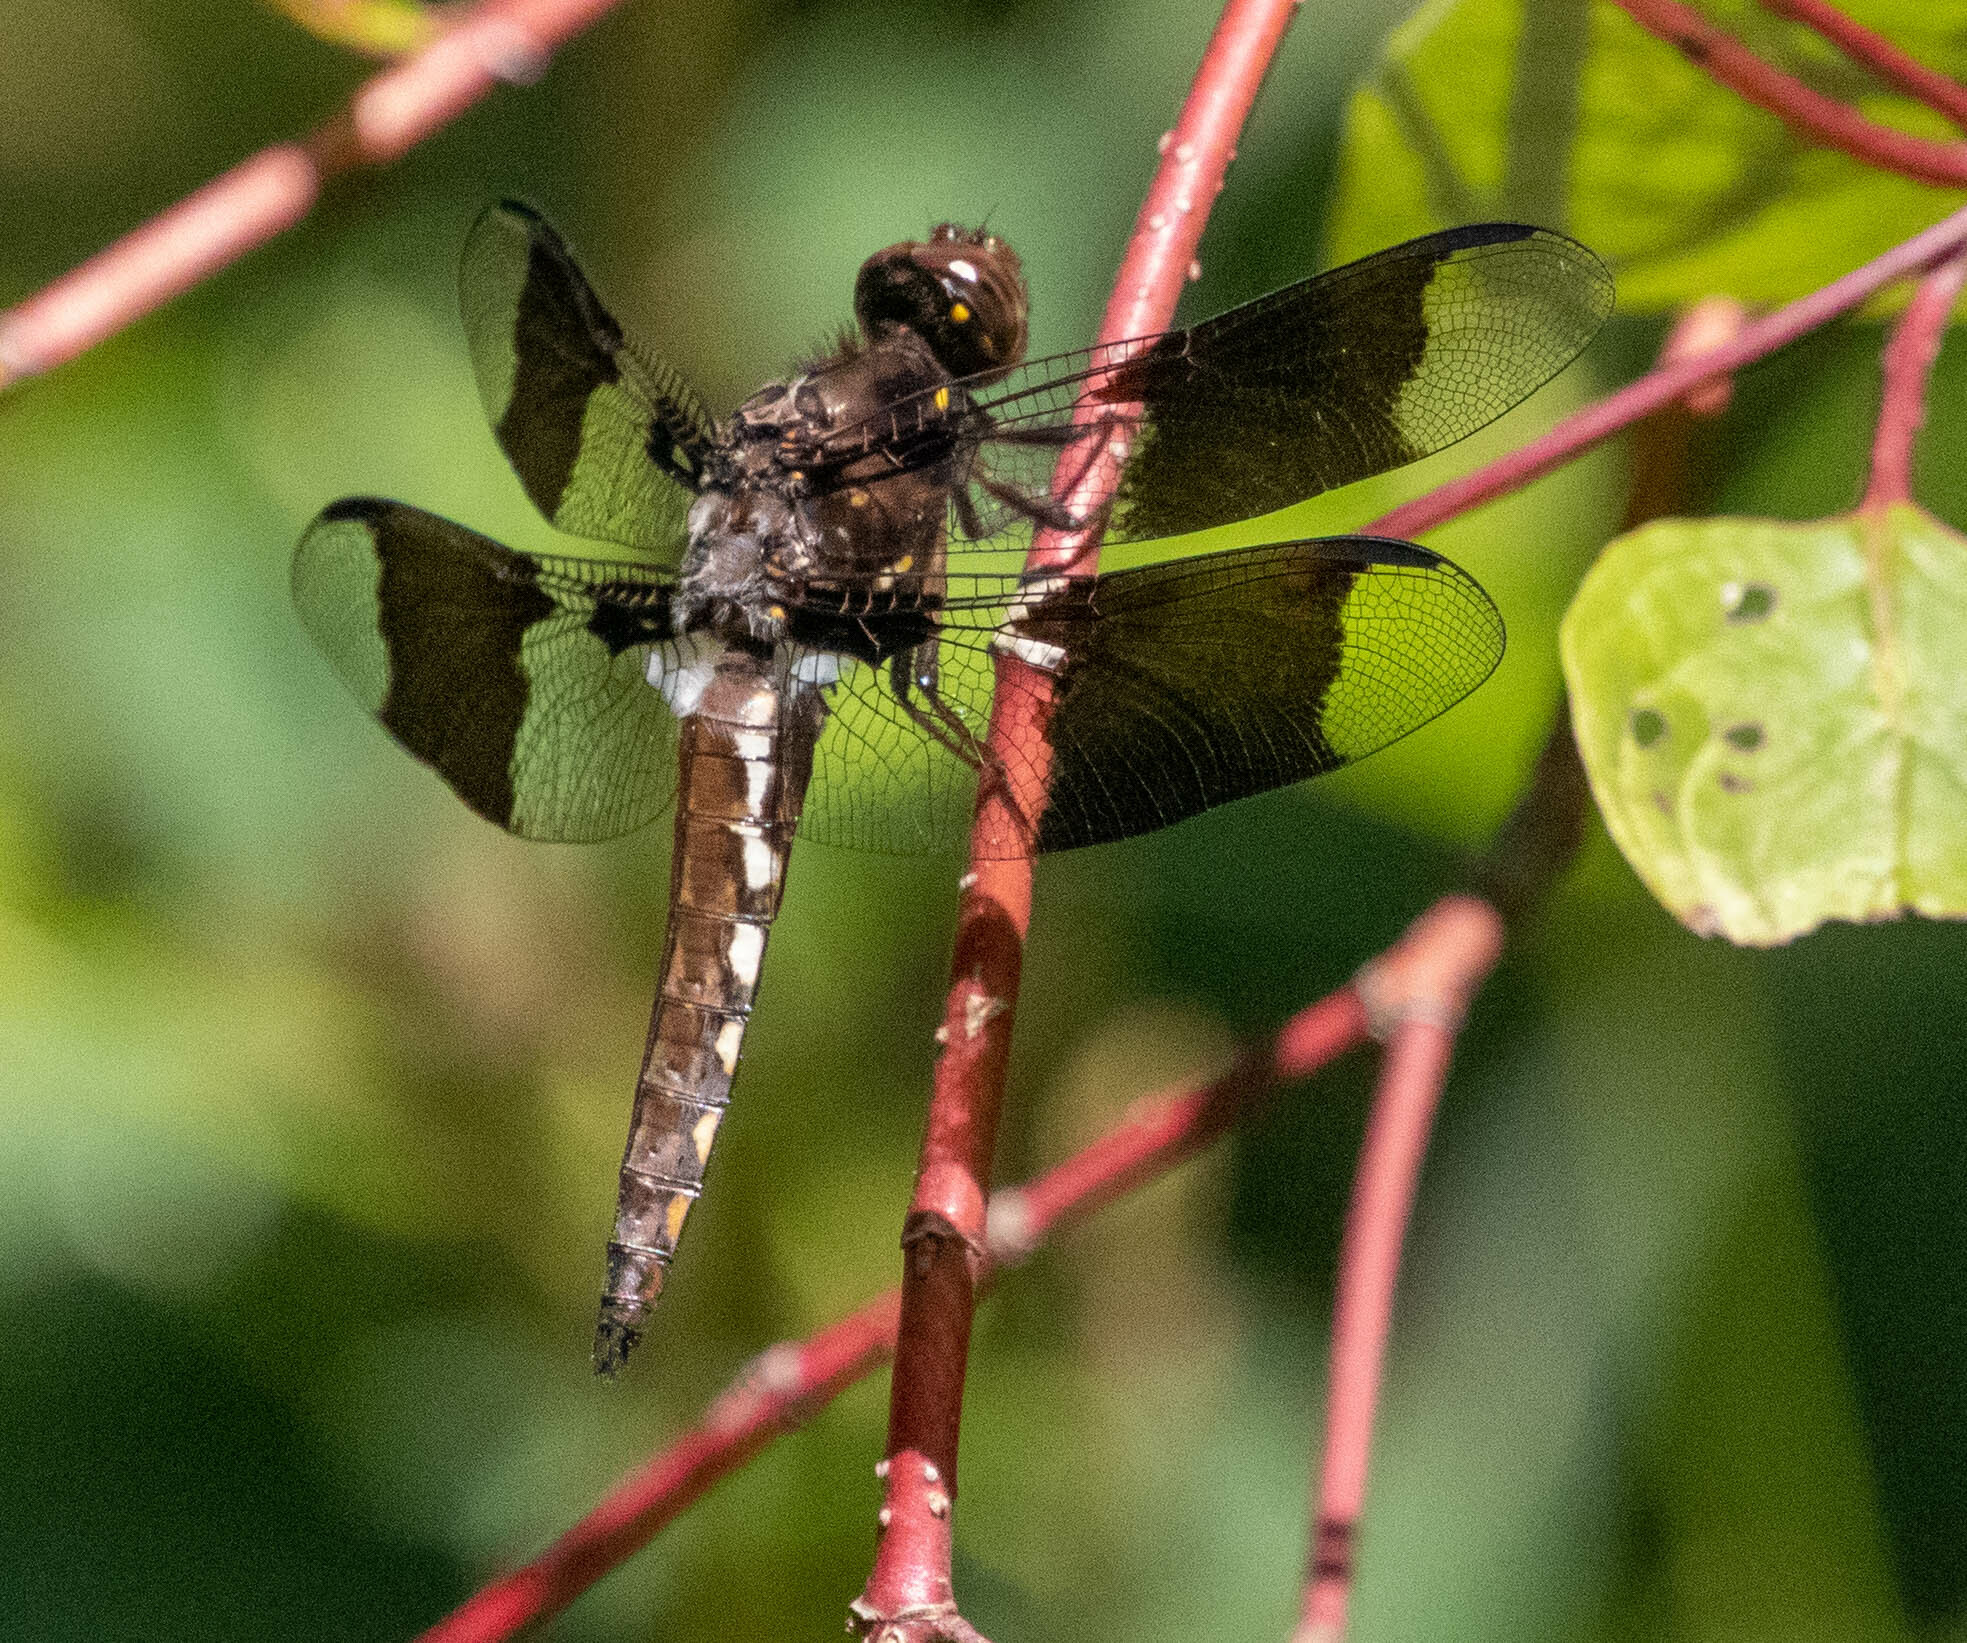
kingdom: Animalia
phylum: Arthropoda
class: Insecta
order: Odonata
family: Libellulidae
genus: Plathemis
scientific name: Plathemis lydia
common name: Common whitetail
